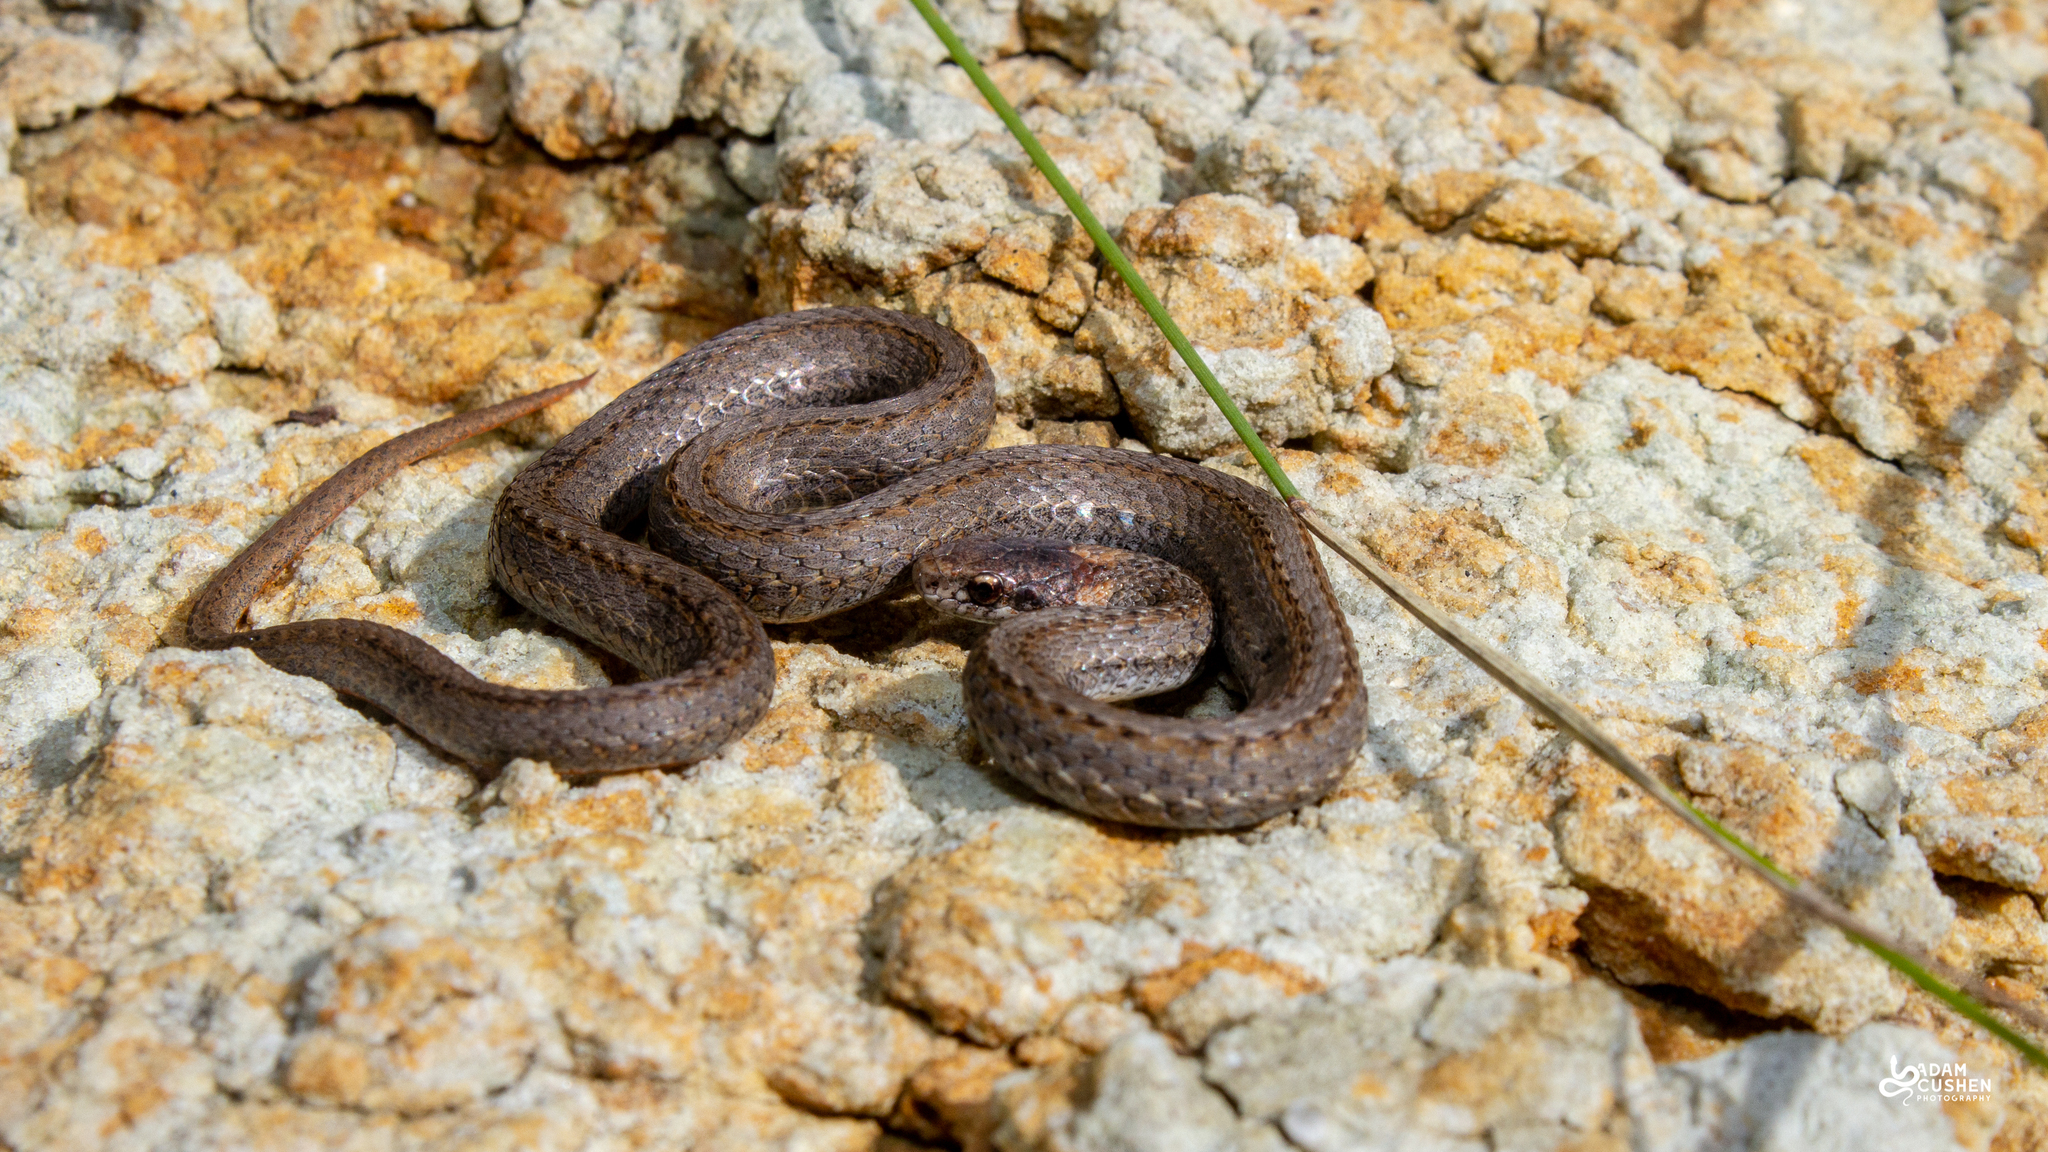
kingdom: Animalia
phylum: Chordata
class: Squamata
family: Colubridae
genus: Storeria
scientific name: Storeria occipitomaculata
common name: Redbelly snake
